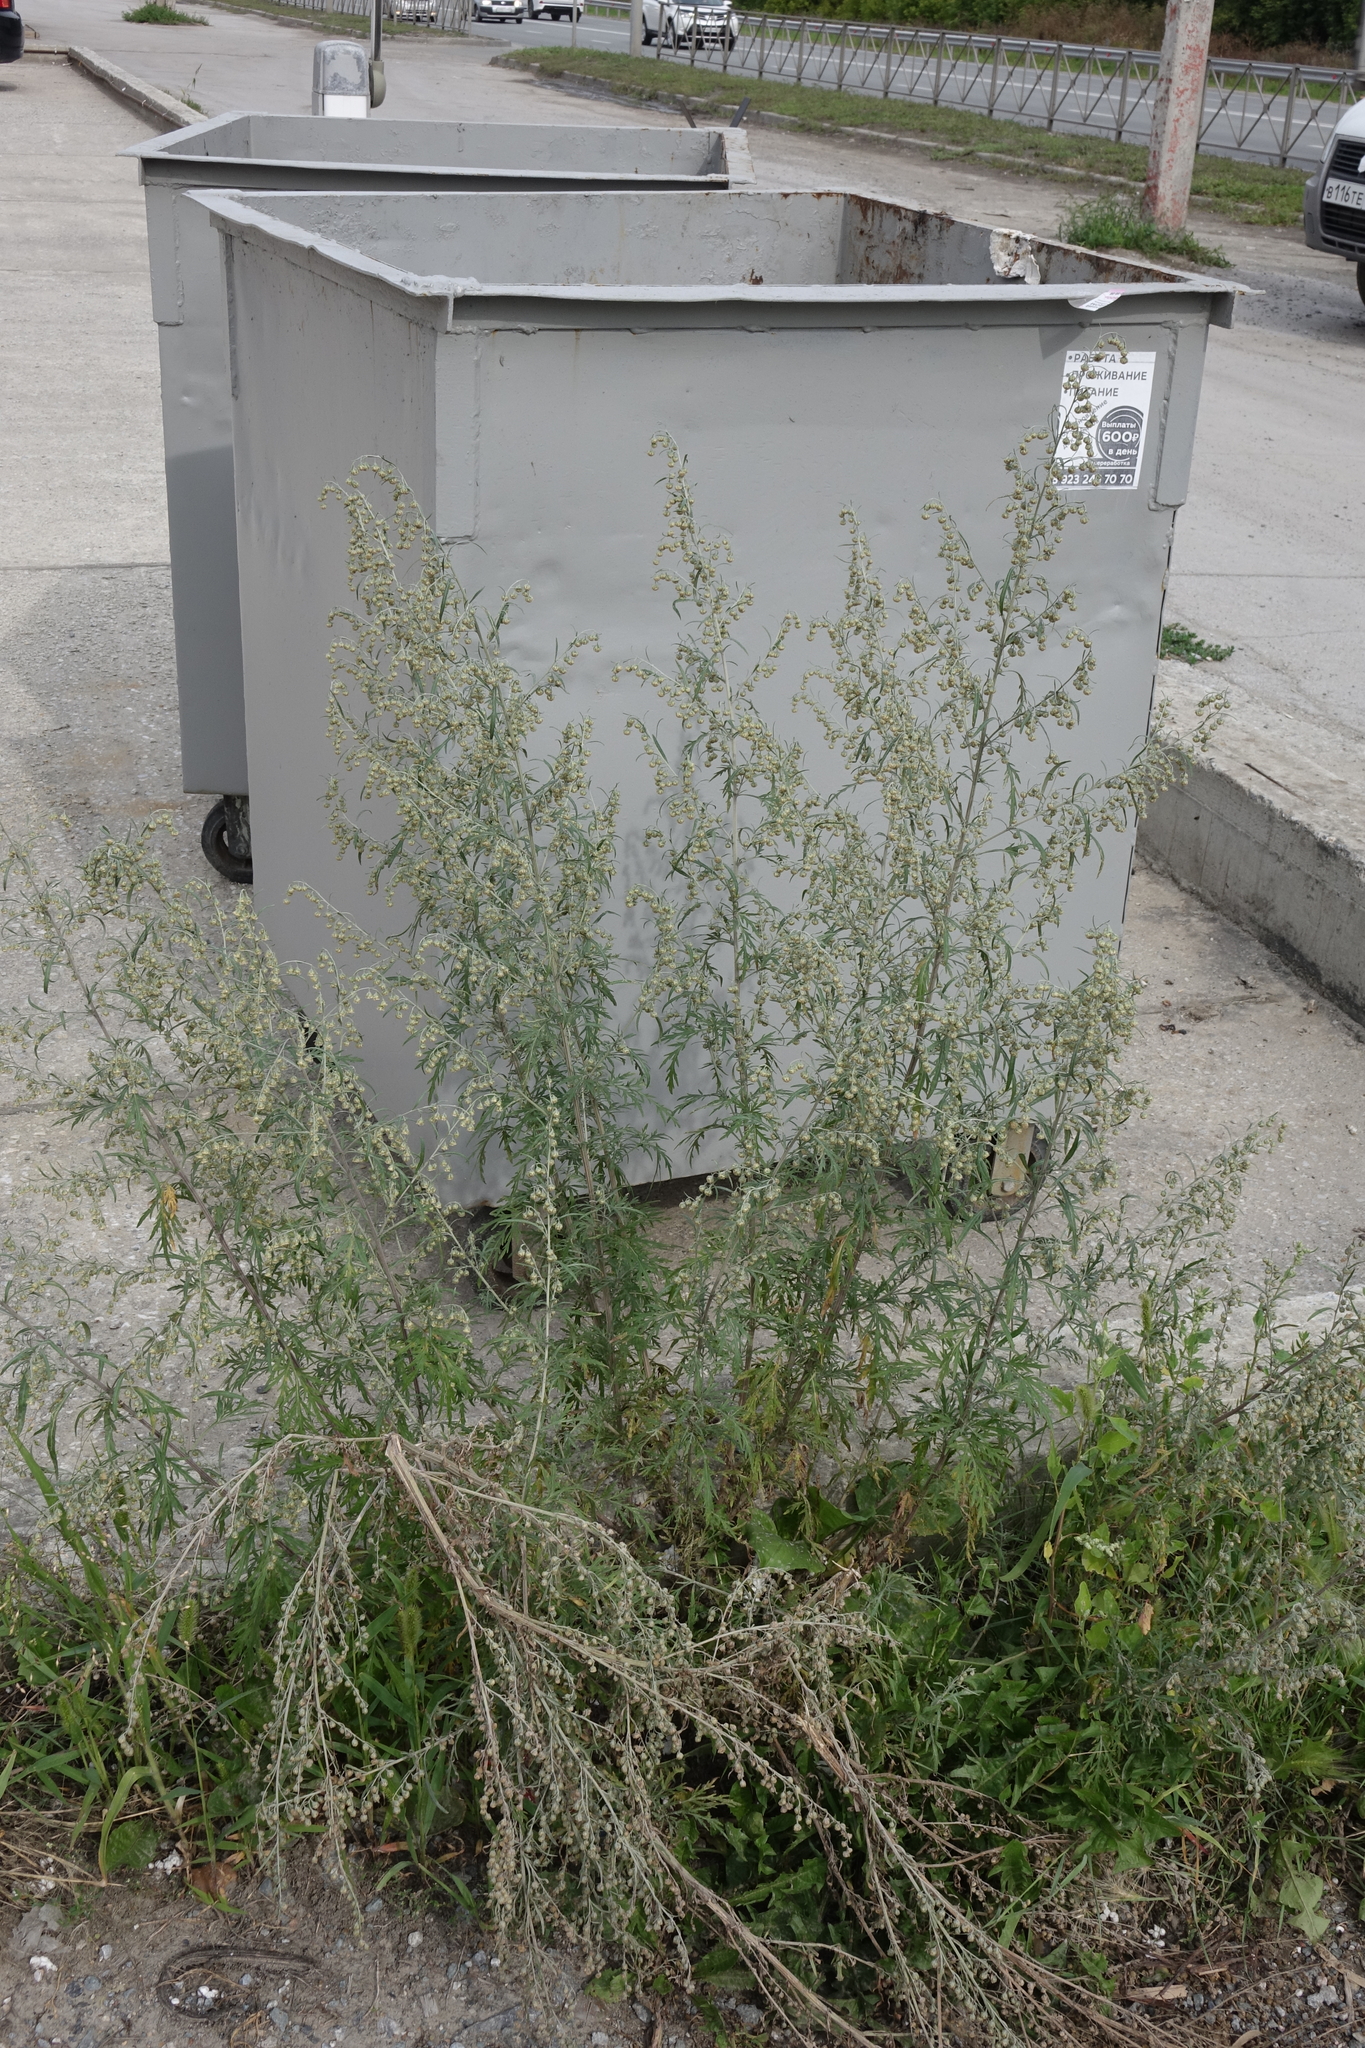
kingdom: Plantae
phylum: Tracheophyta
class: Magnoliopsida
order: Asterales
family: Asteraceae
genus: Artemisia
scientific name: Artemisia vulgaris
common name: Mugwort
